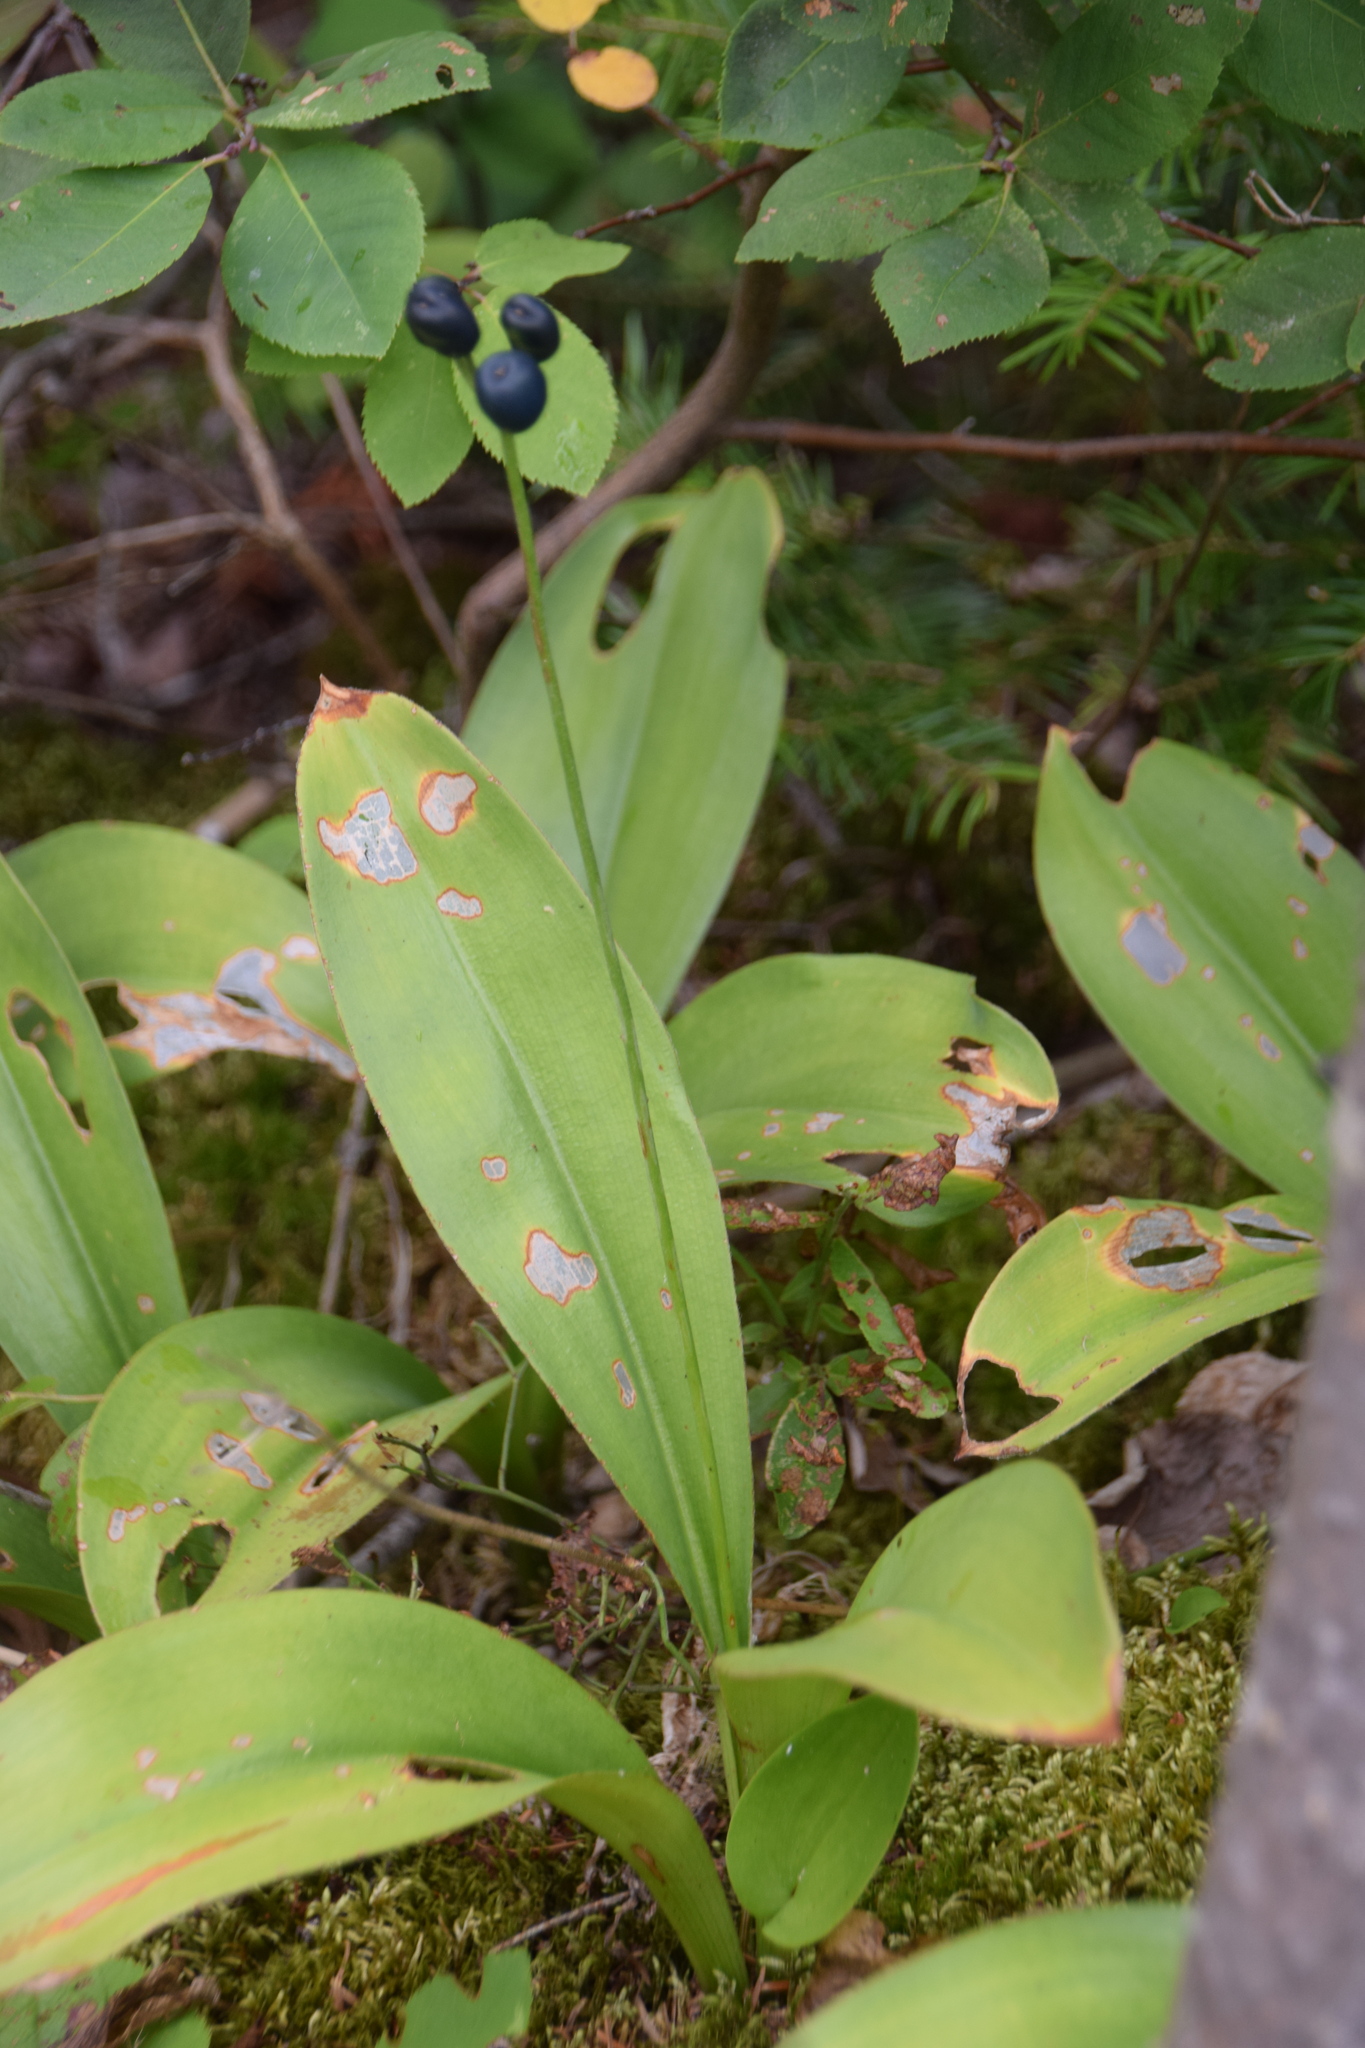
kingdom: Plantae
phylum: Tracheophyta
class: Liliopsida
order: Liliales
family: Liliaceae
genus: Clintonia
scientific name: Clintonia borealis
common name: Yellow clintonia
